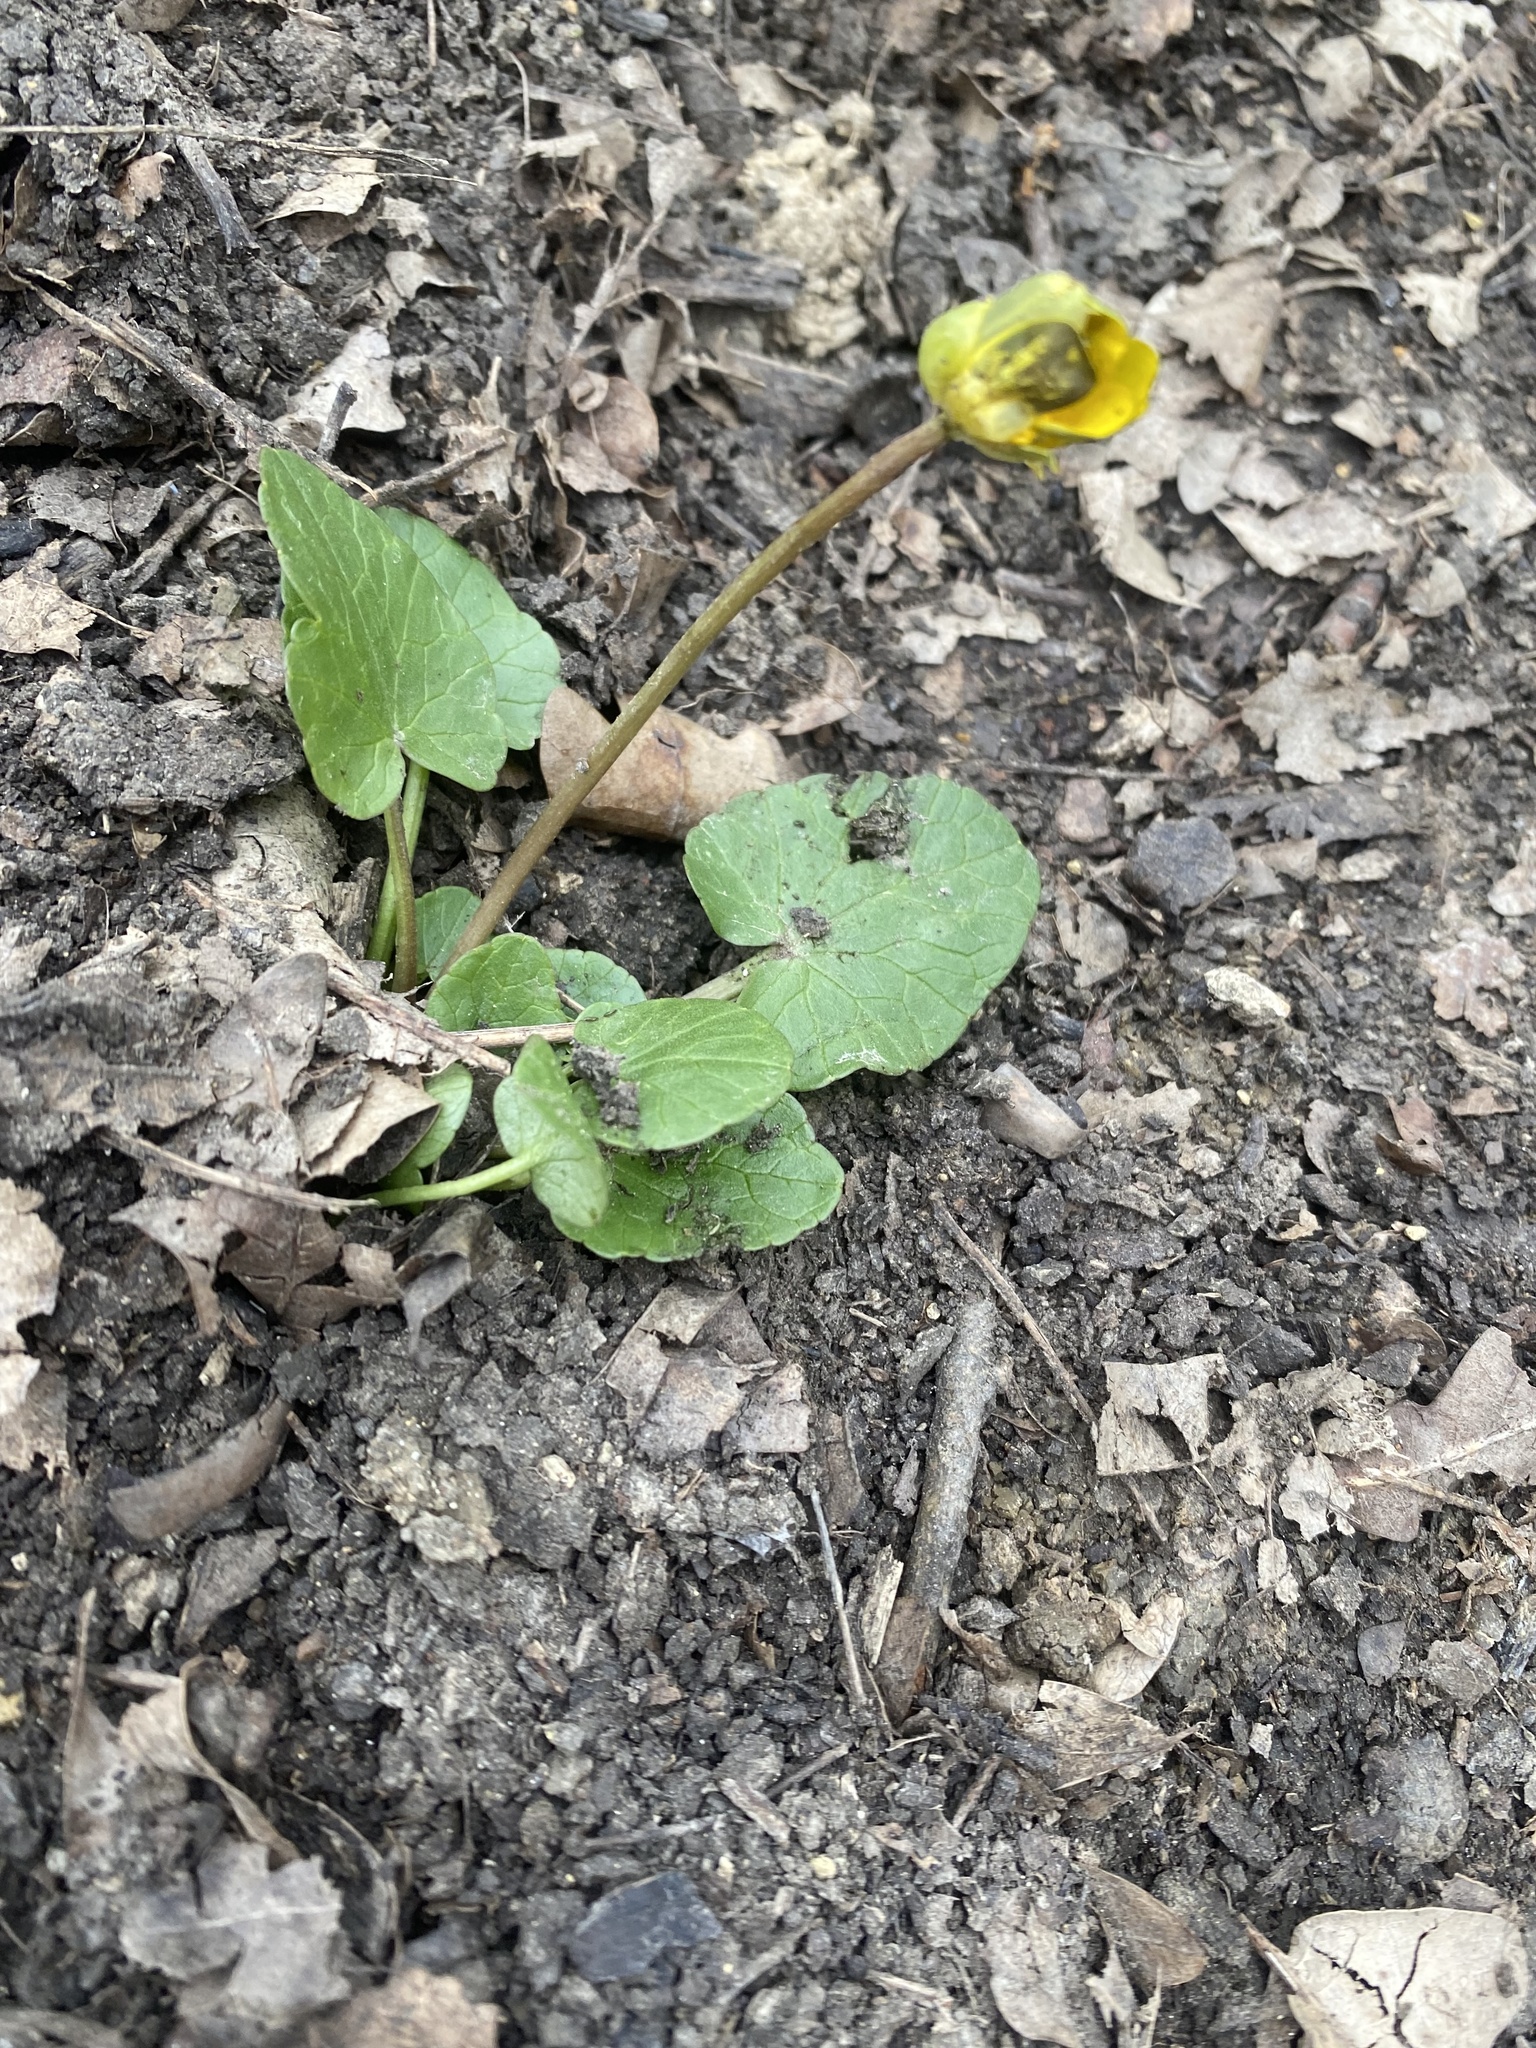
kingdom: Plantae
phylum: Tracheophyta
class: Magnoliopsida
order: Ranunculales
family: Ranunculaceae
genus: Ficaria
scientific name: Ficaria verna
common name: Lesser celandine
